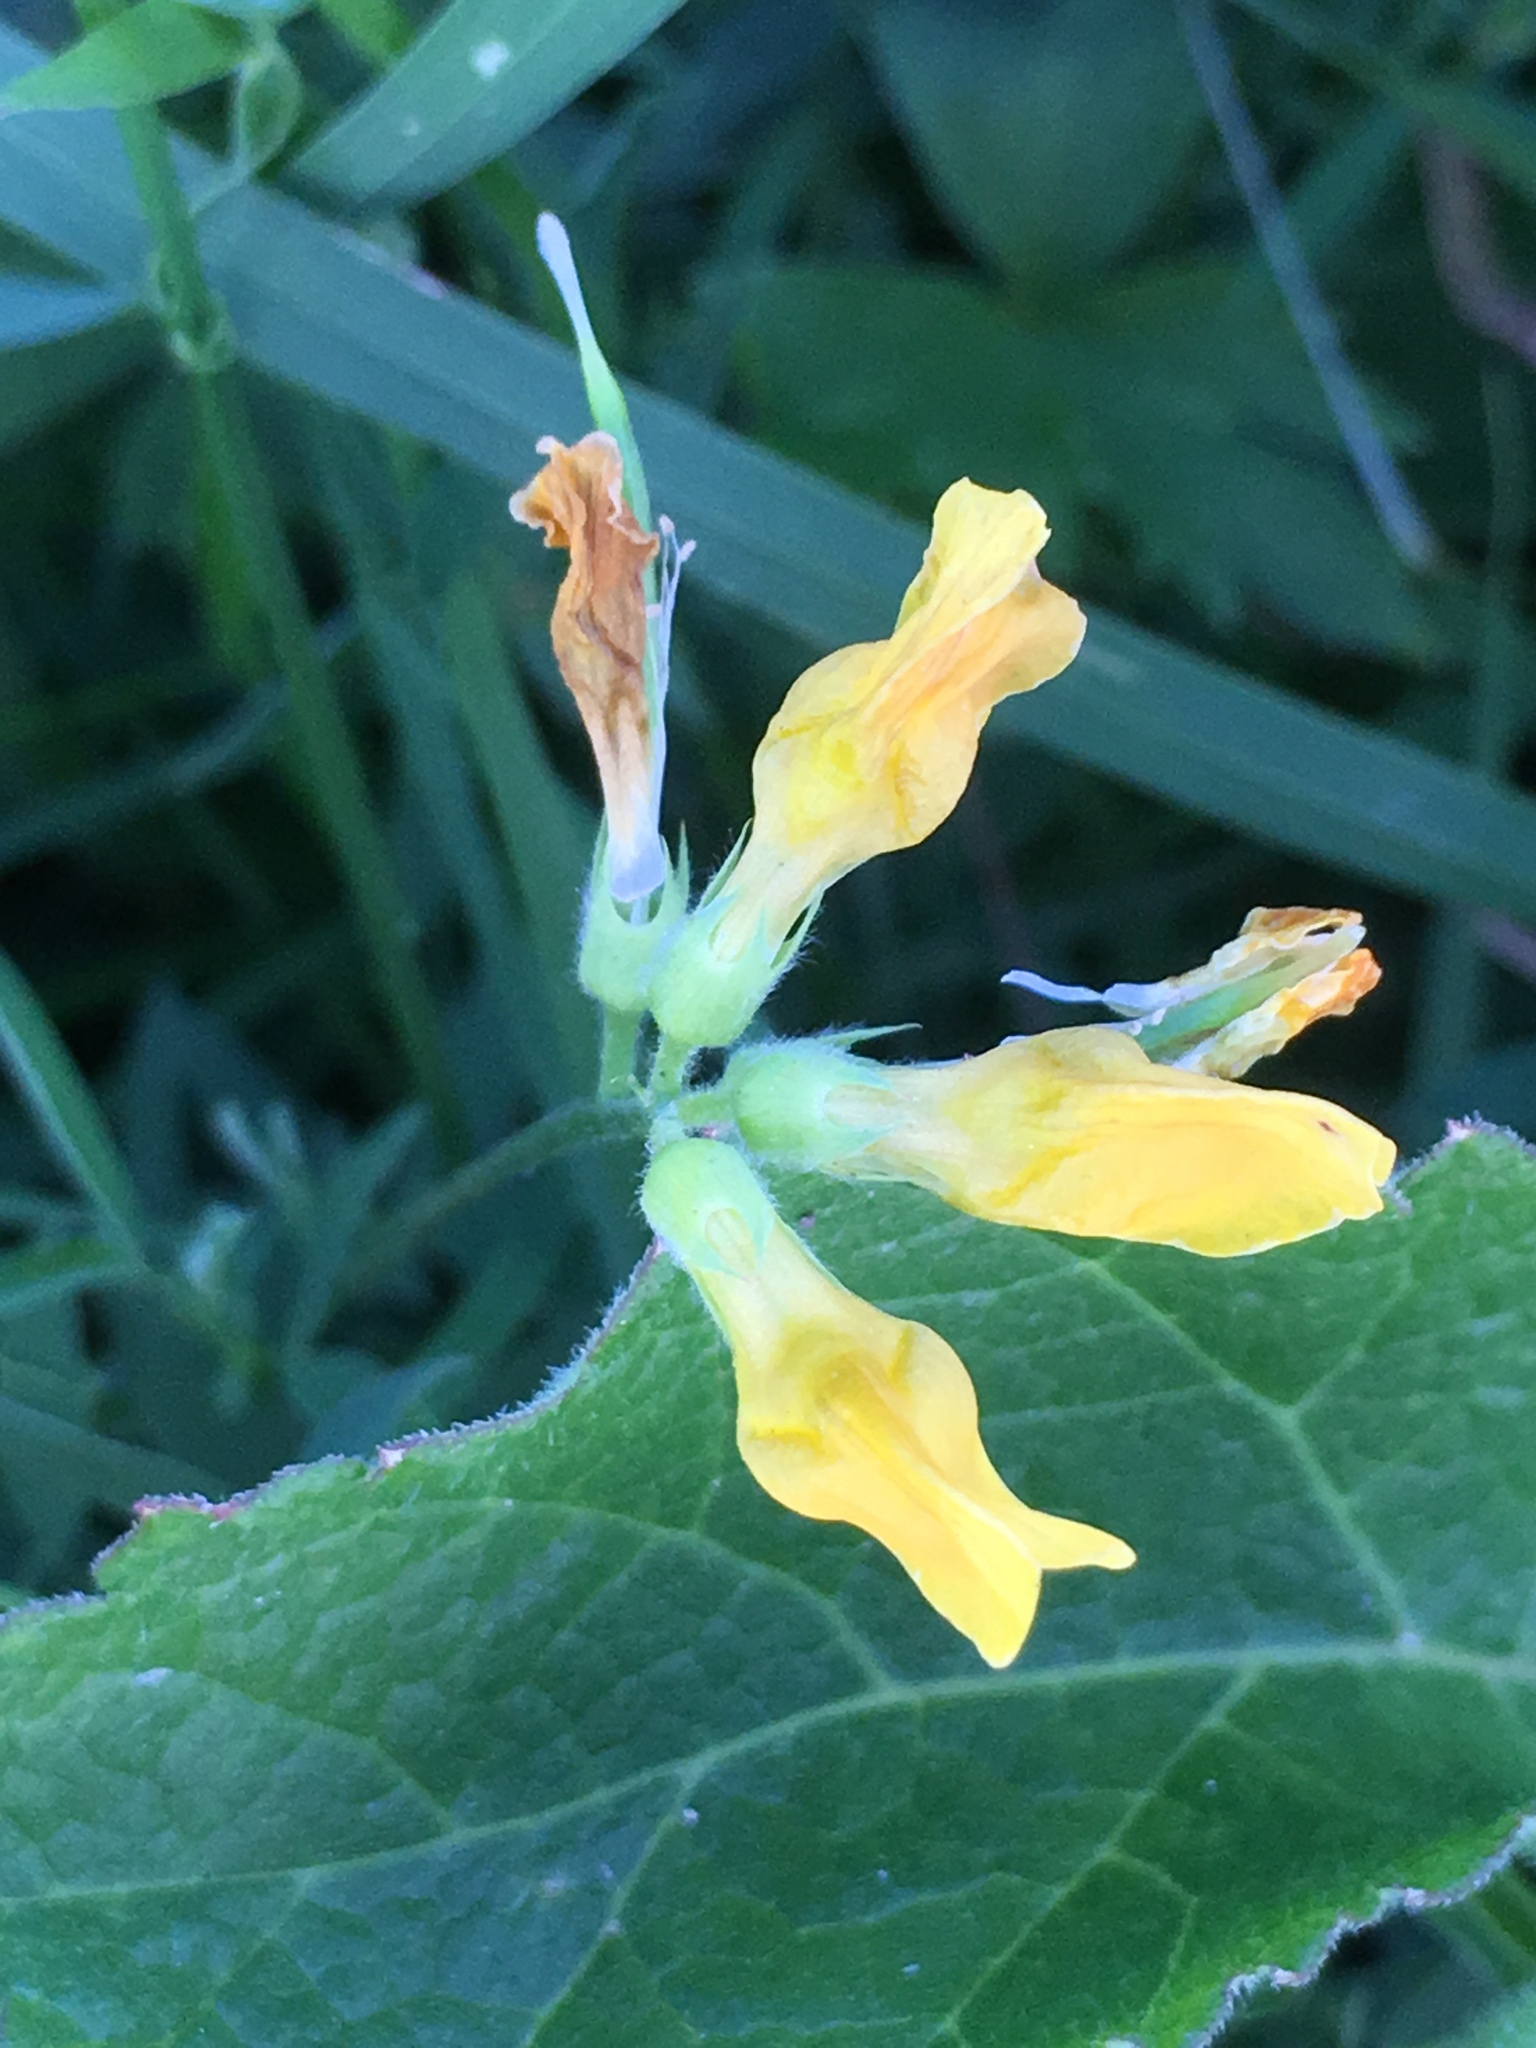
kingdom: Plantae
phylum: Tracheophyta
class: Magnoliopsida
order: Fabales
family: Fabaceae
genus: Lathyrus
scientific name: Lathyrus pratensis
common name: Meadow vetchling
